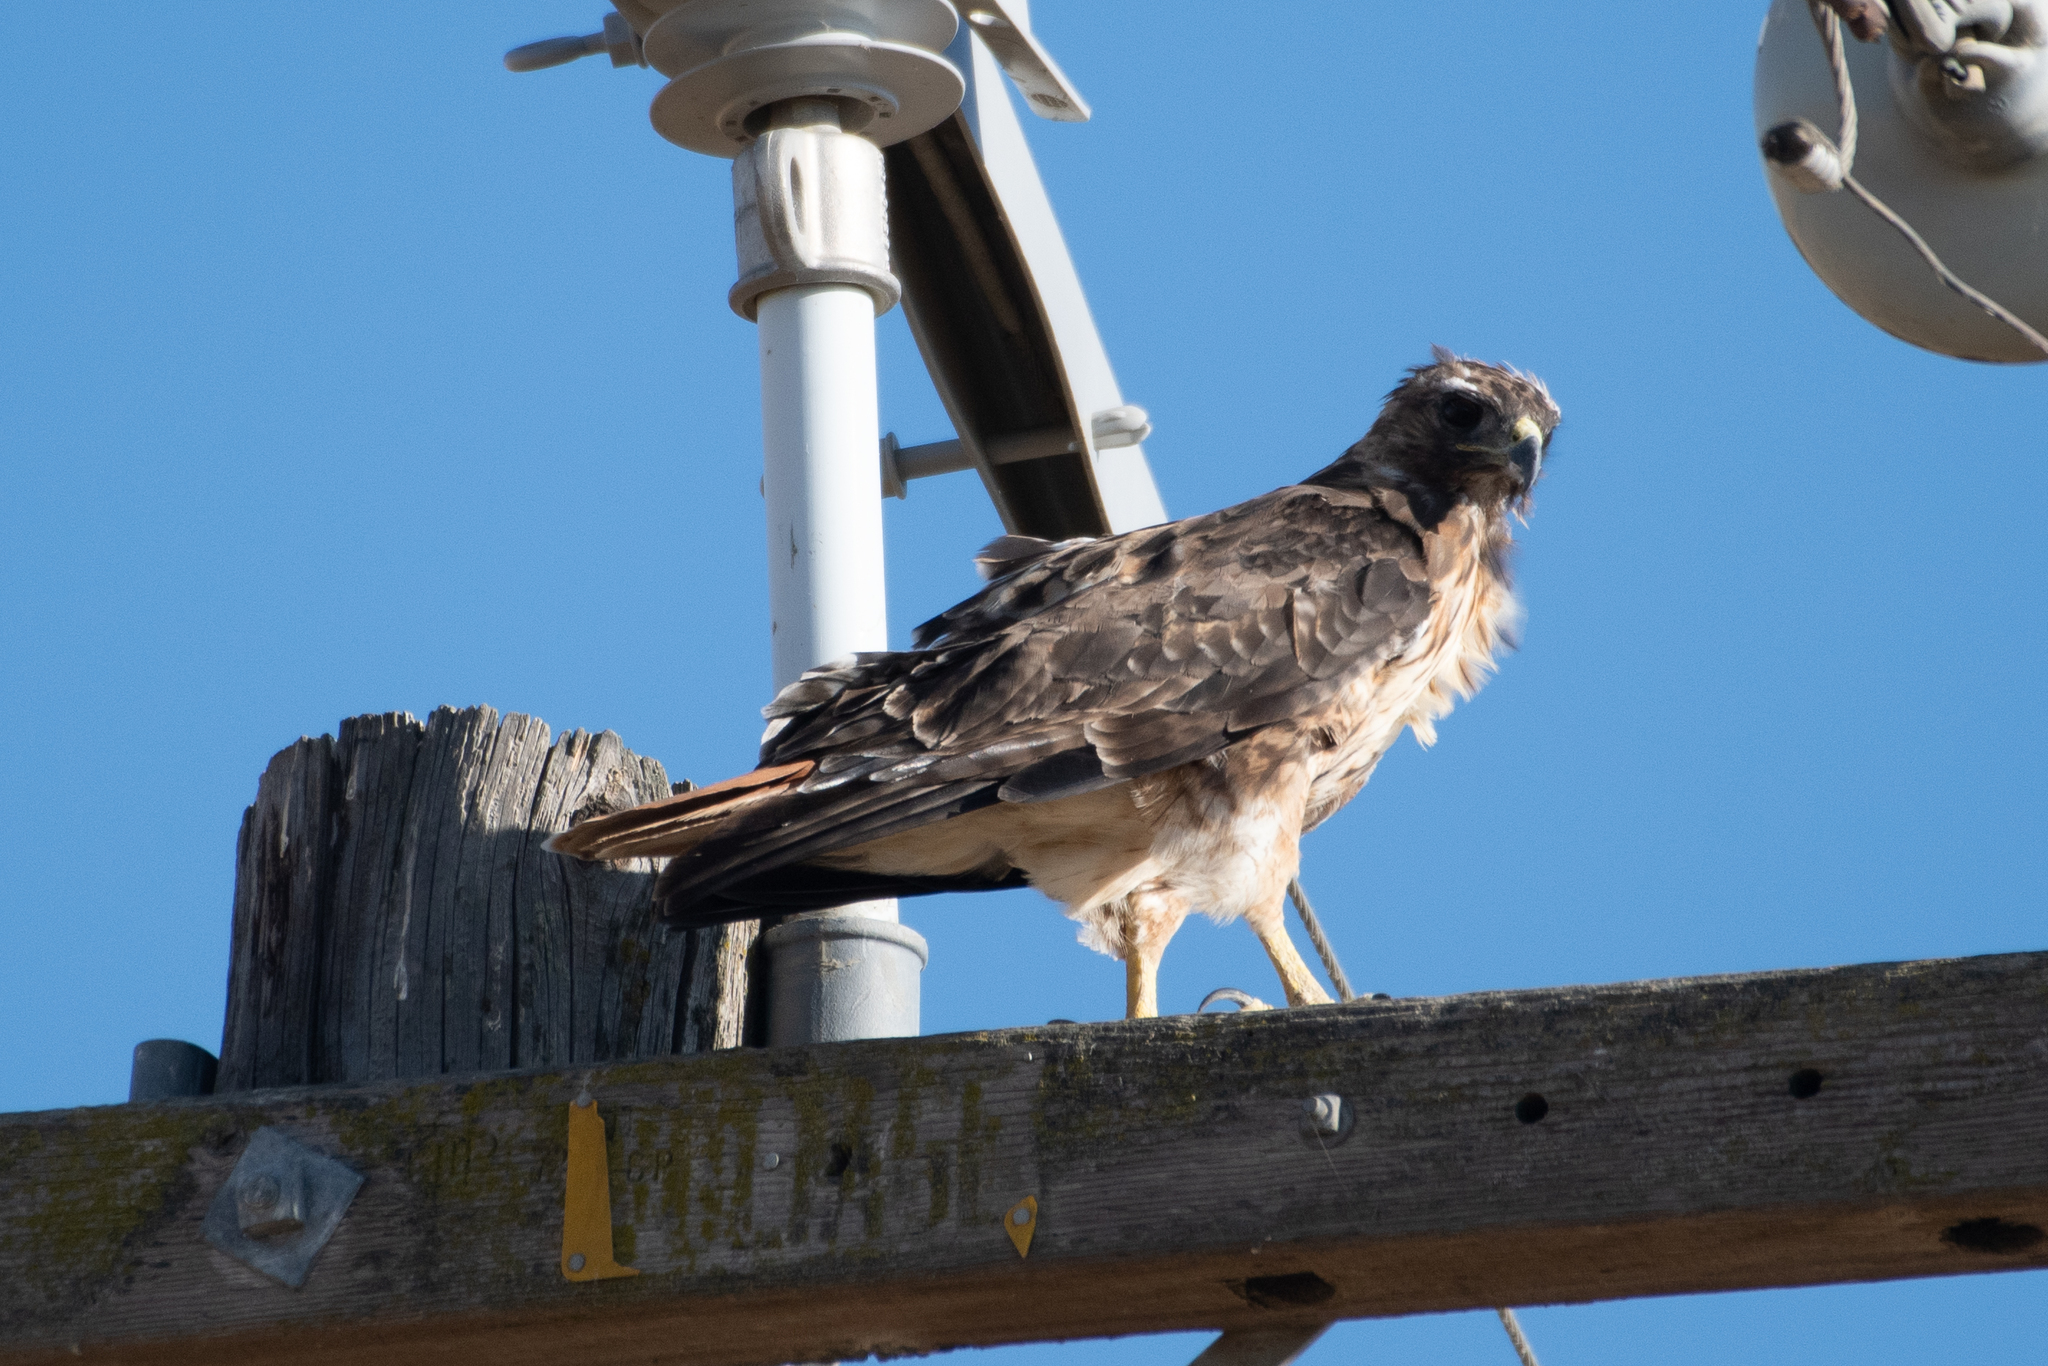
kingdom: Animalia
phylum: Chordata
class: Aves
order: Accipitriformes
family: Accipitridae
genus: Buteo
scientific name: Buteo jamaicensis
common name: Red-tailed hawk
